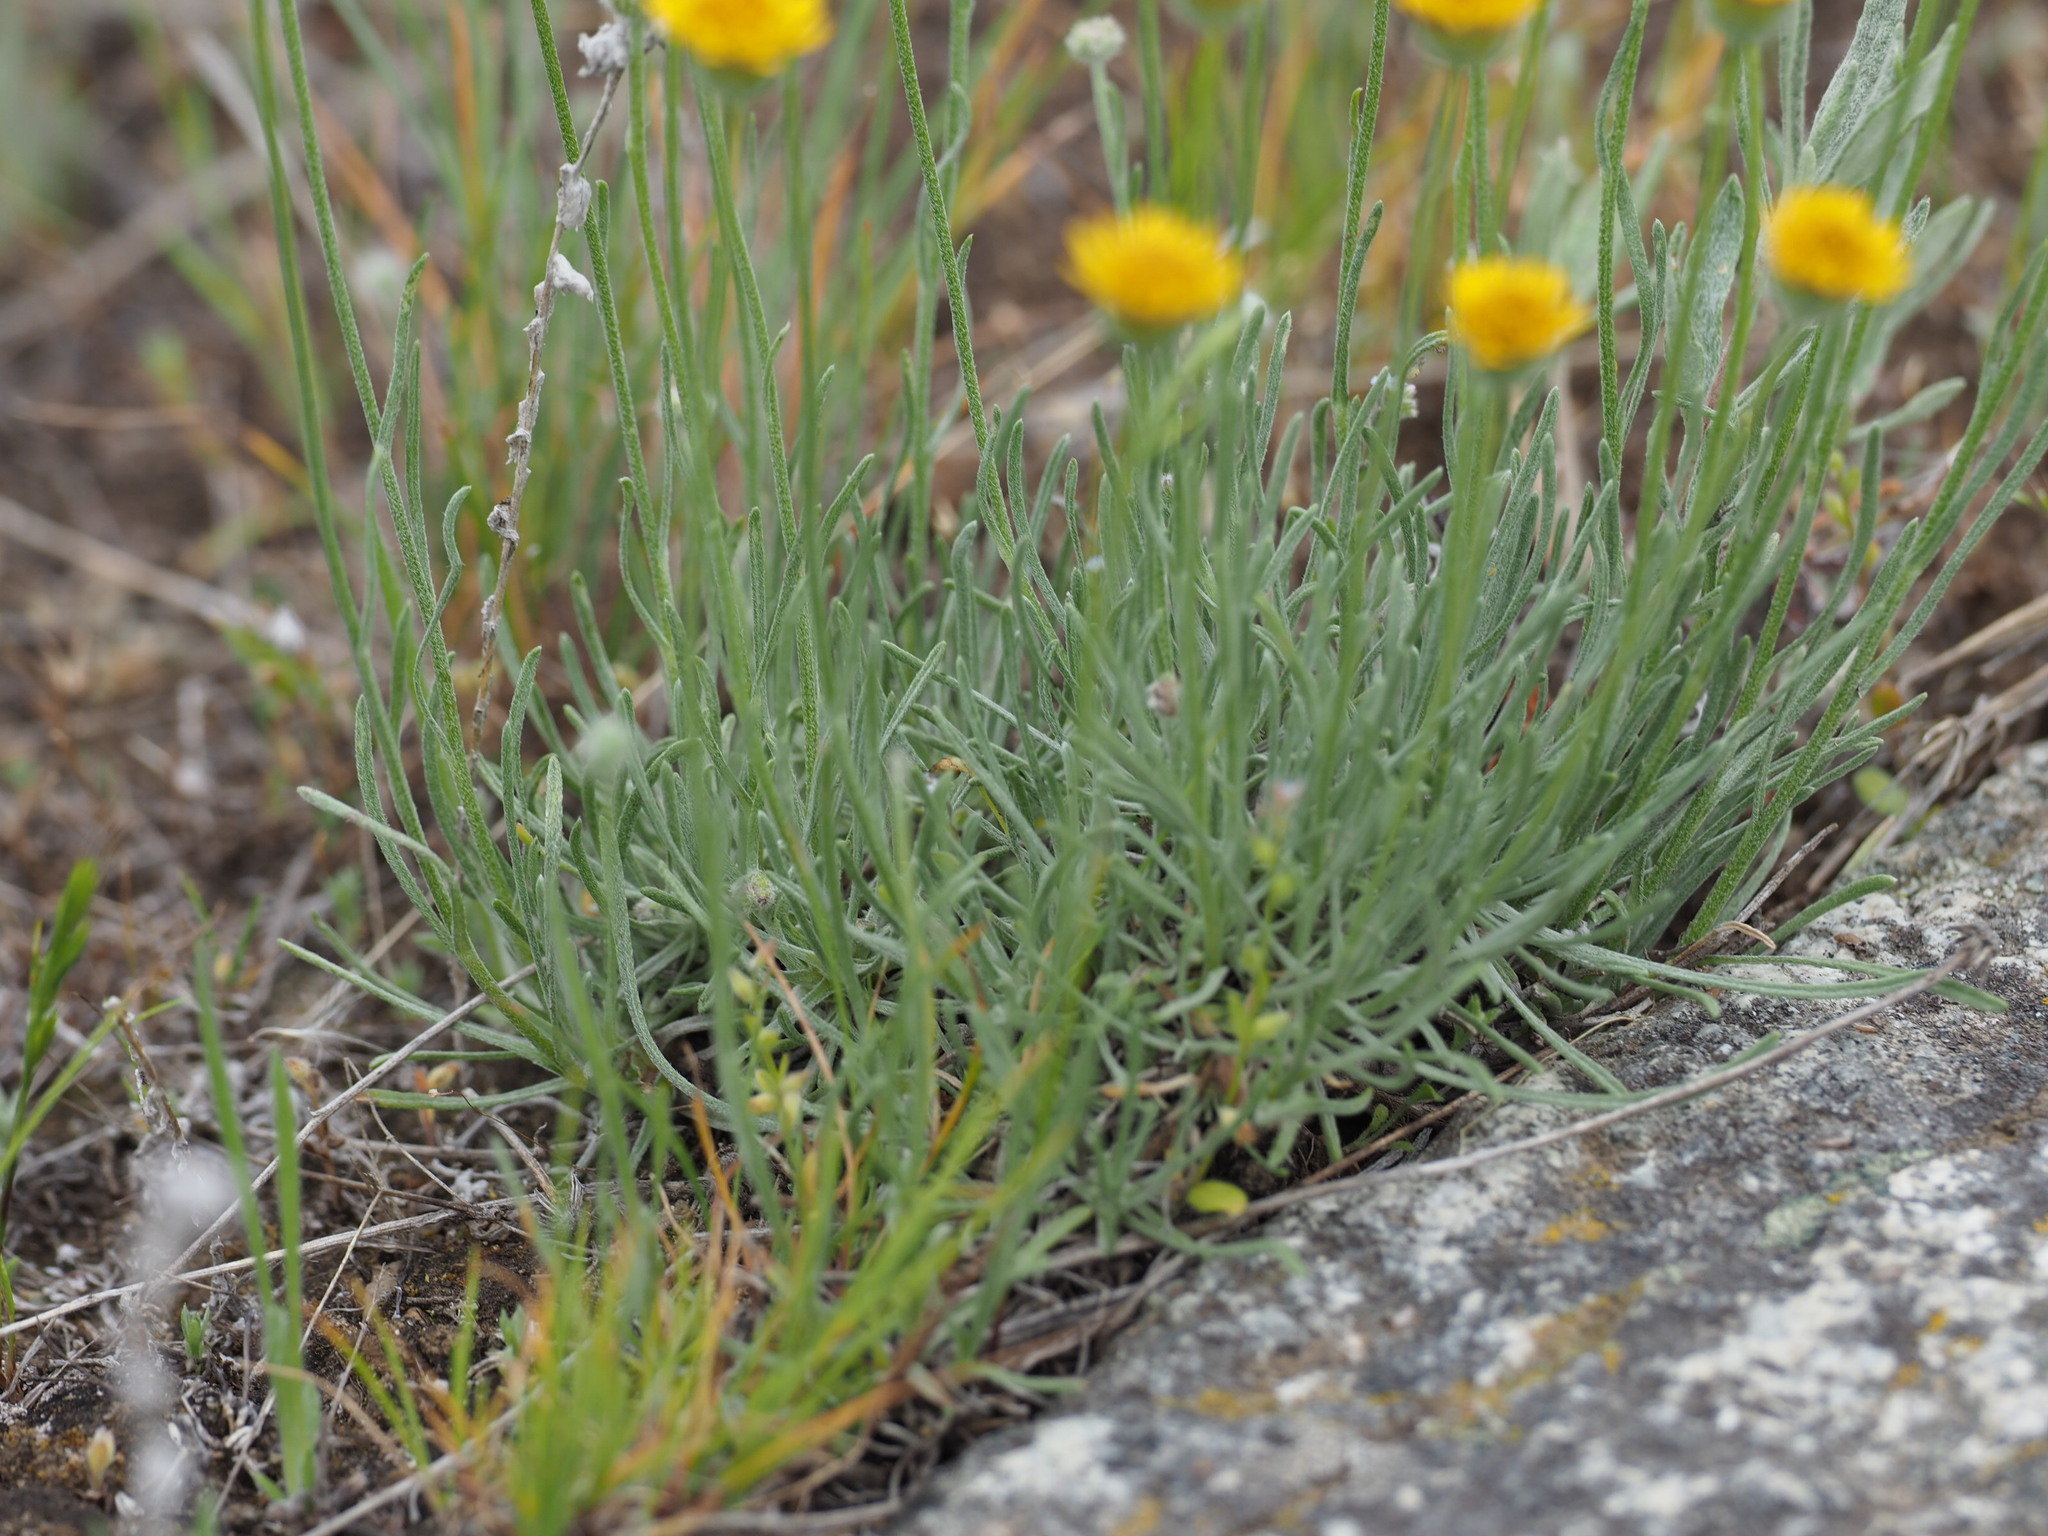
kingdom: Plantae
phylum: Tracheophyta
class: Magnoliopsida
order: Asterales
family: Asteraceae
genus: Erigeron
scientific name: Erigeron linearis
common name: Desert yellow fleabane
